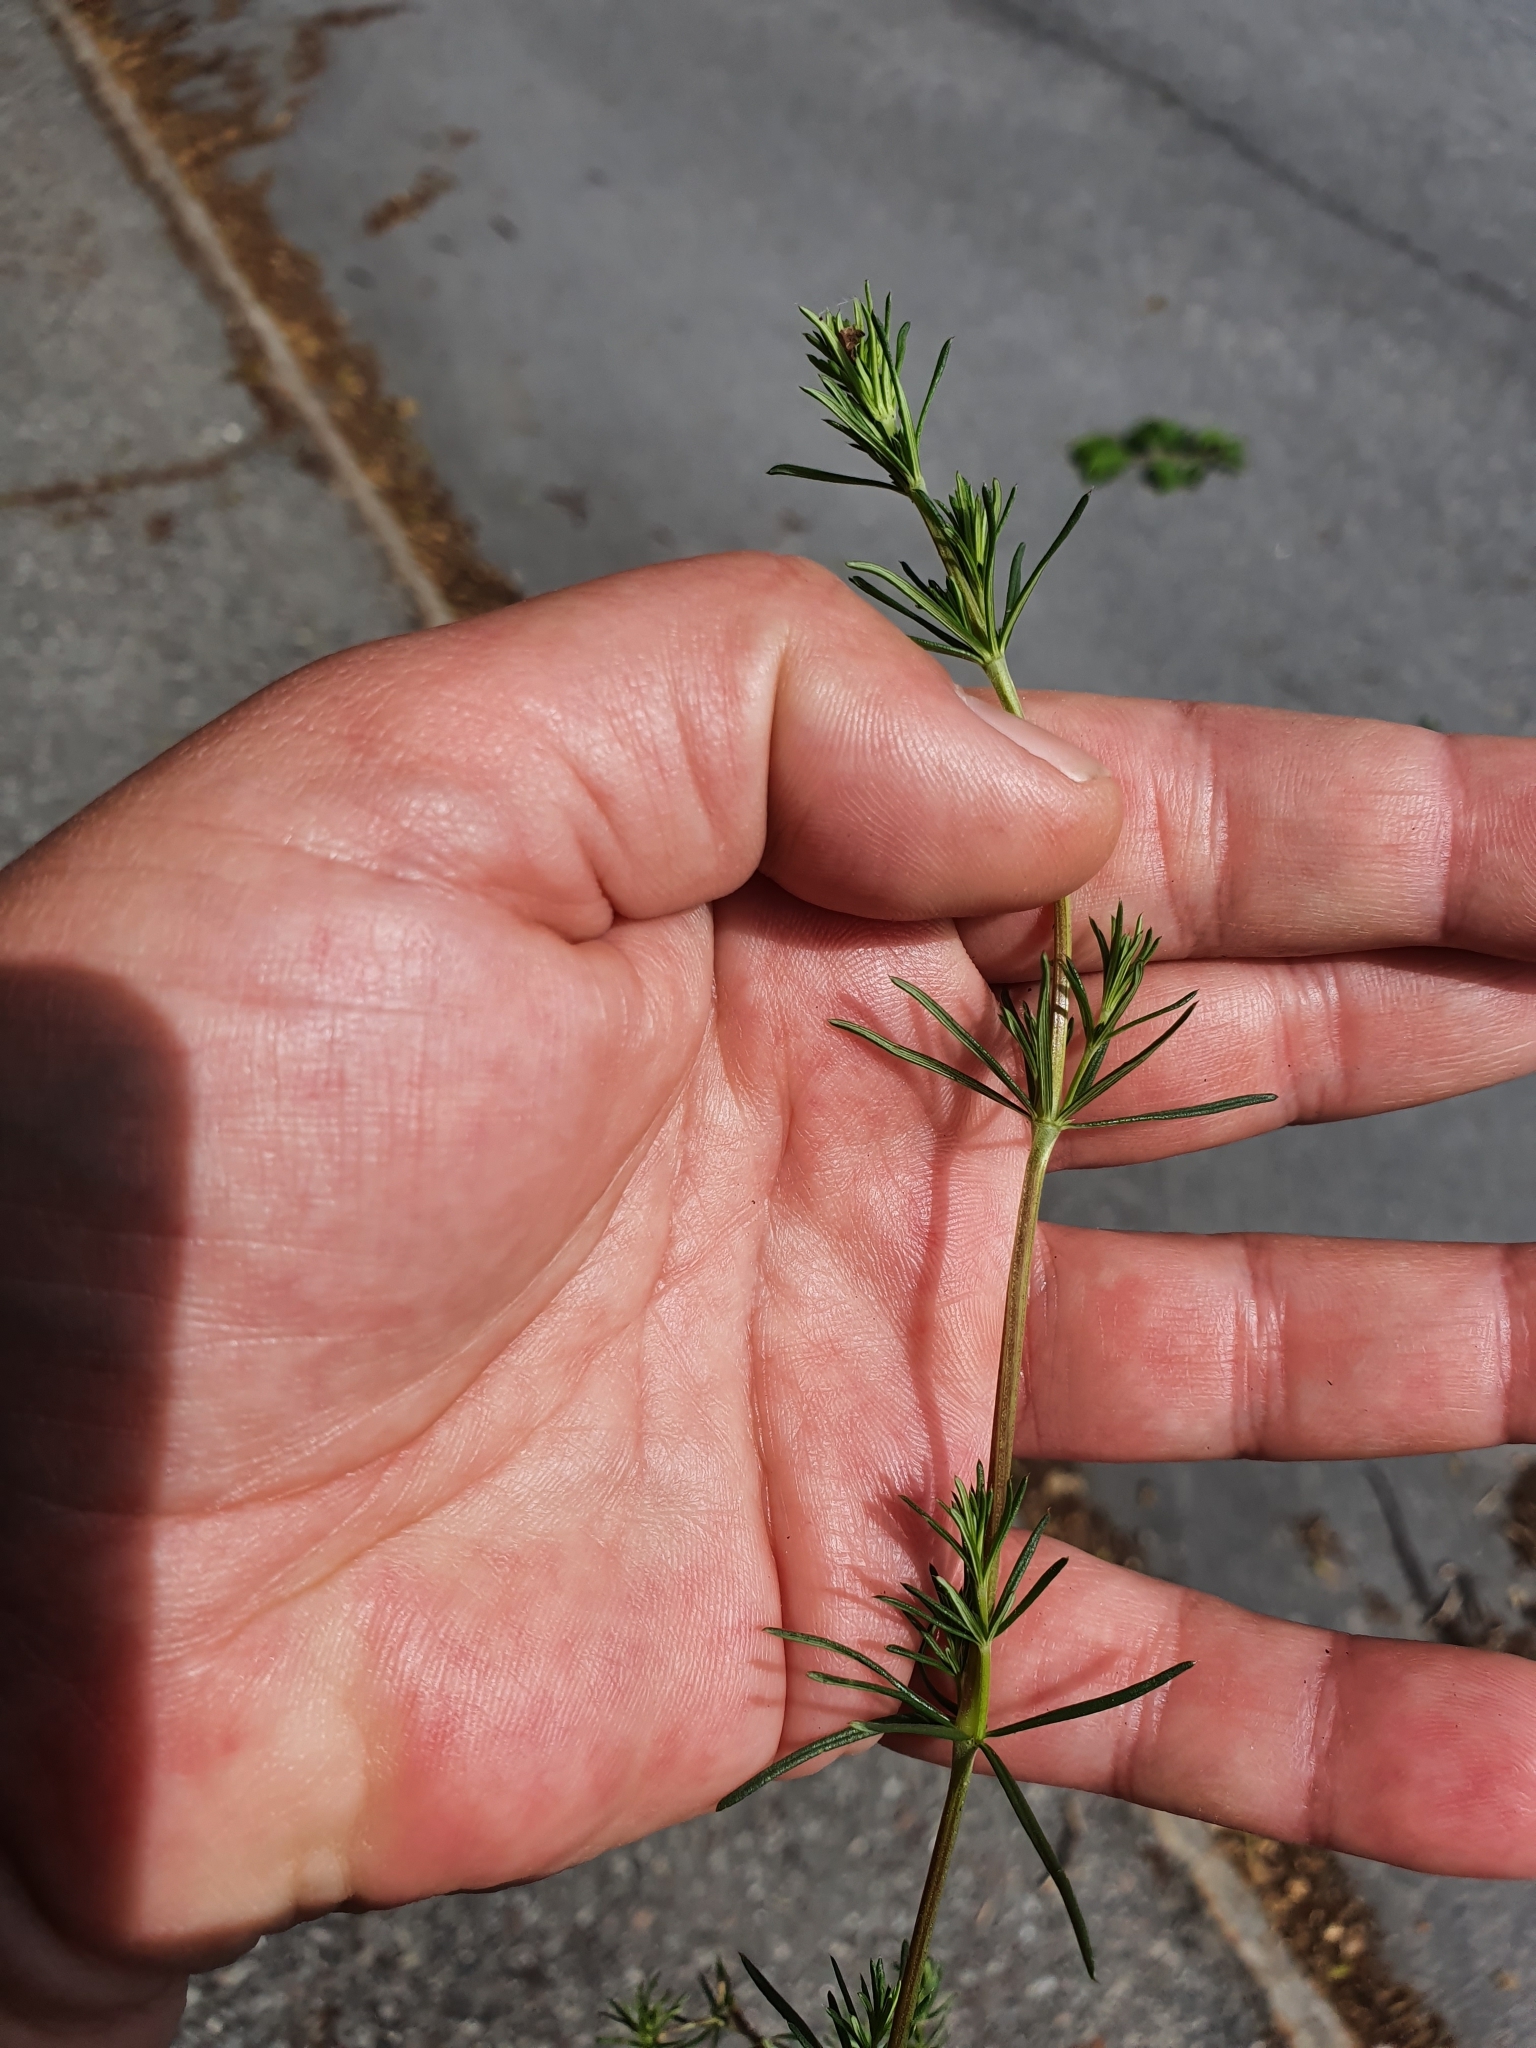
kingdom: Plantae
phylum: Tracheophyta
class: Magnoliopsida
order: Gentianales
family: Rubiaceae
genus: Galium
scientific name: Galium verum
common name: Lady's bedstraw
